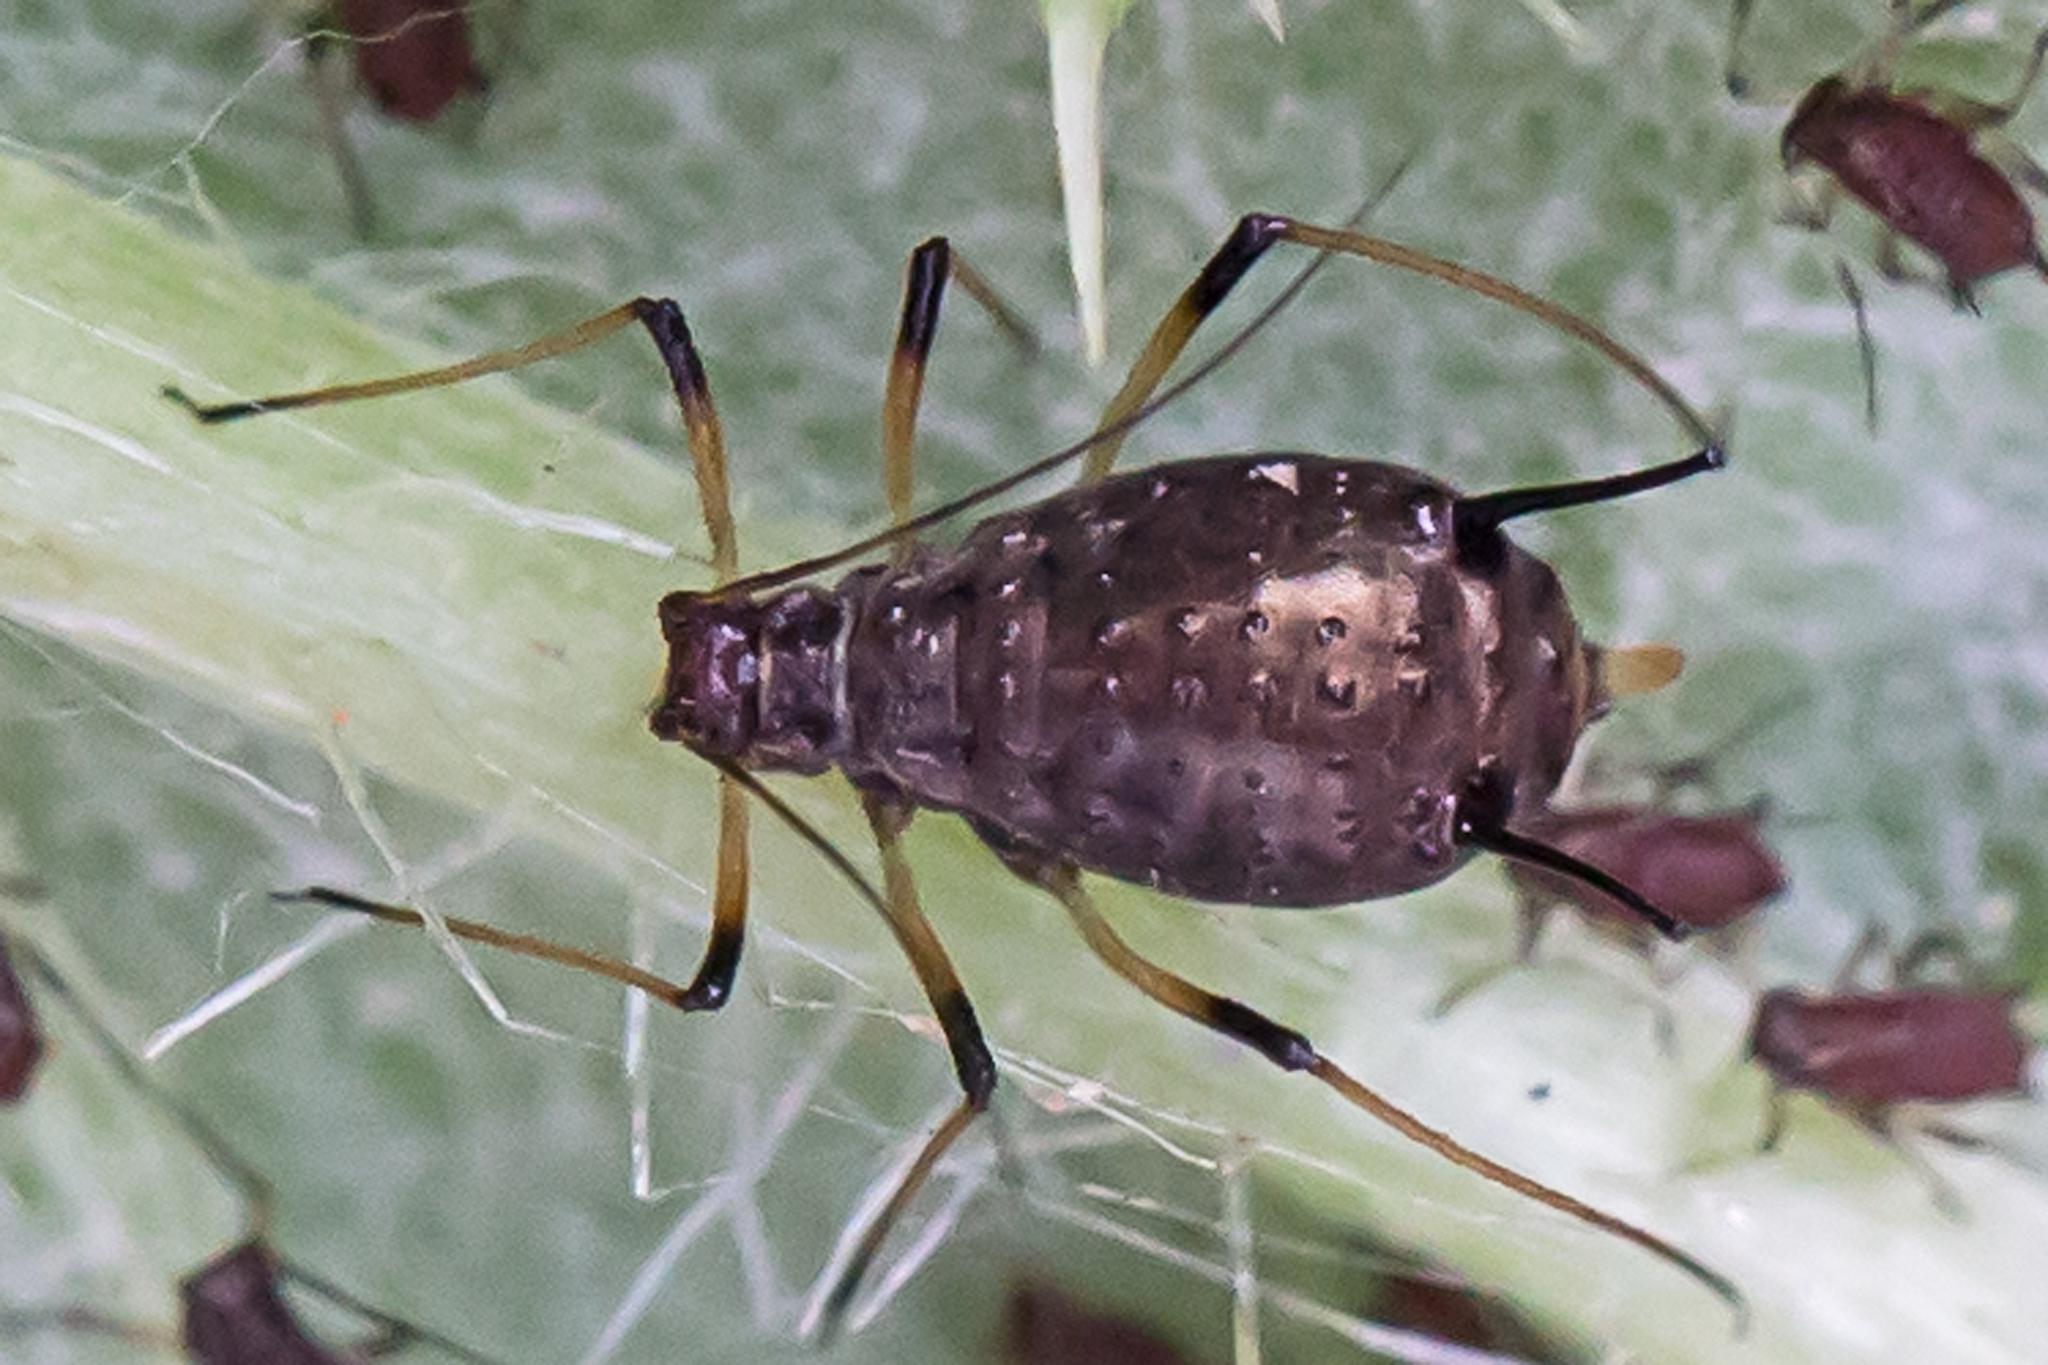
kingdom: Animalia
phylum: Arthropoda
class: Insecta
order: Hemiptera
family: Aphididae
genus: Uroleucon
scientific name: Uroleucon cirsii
